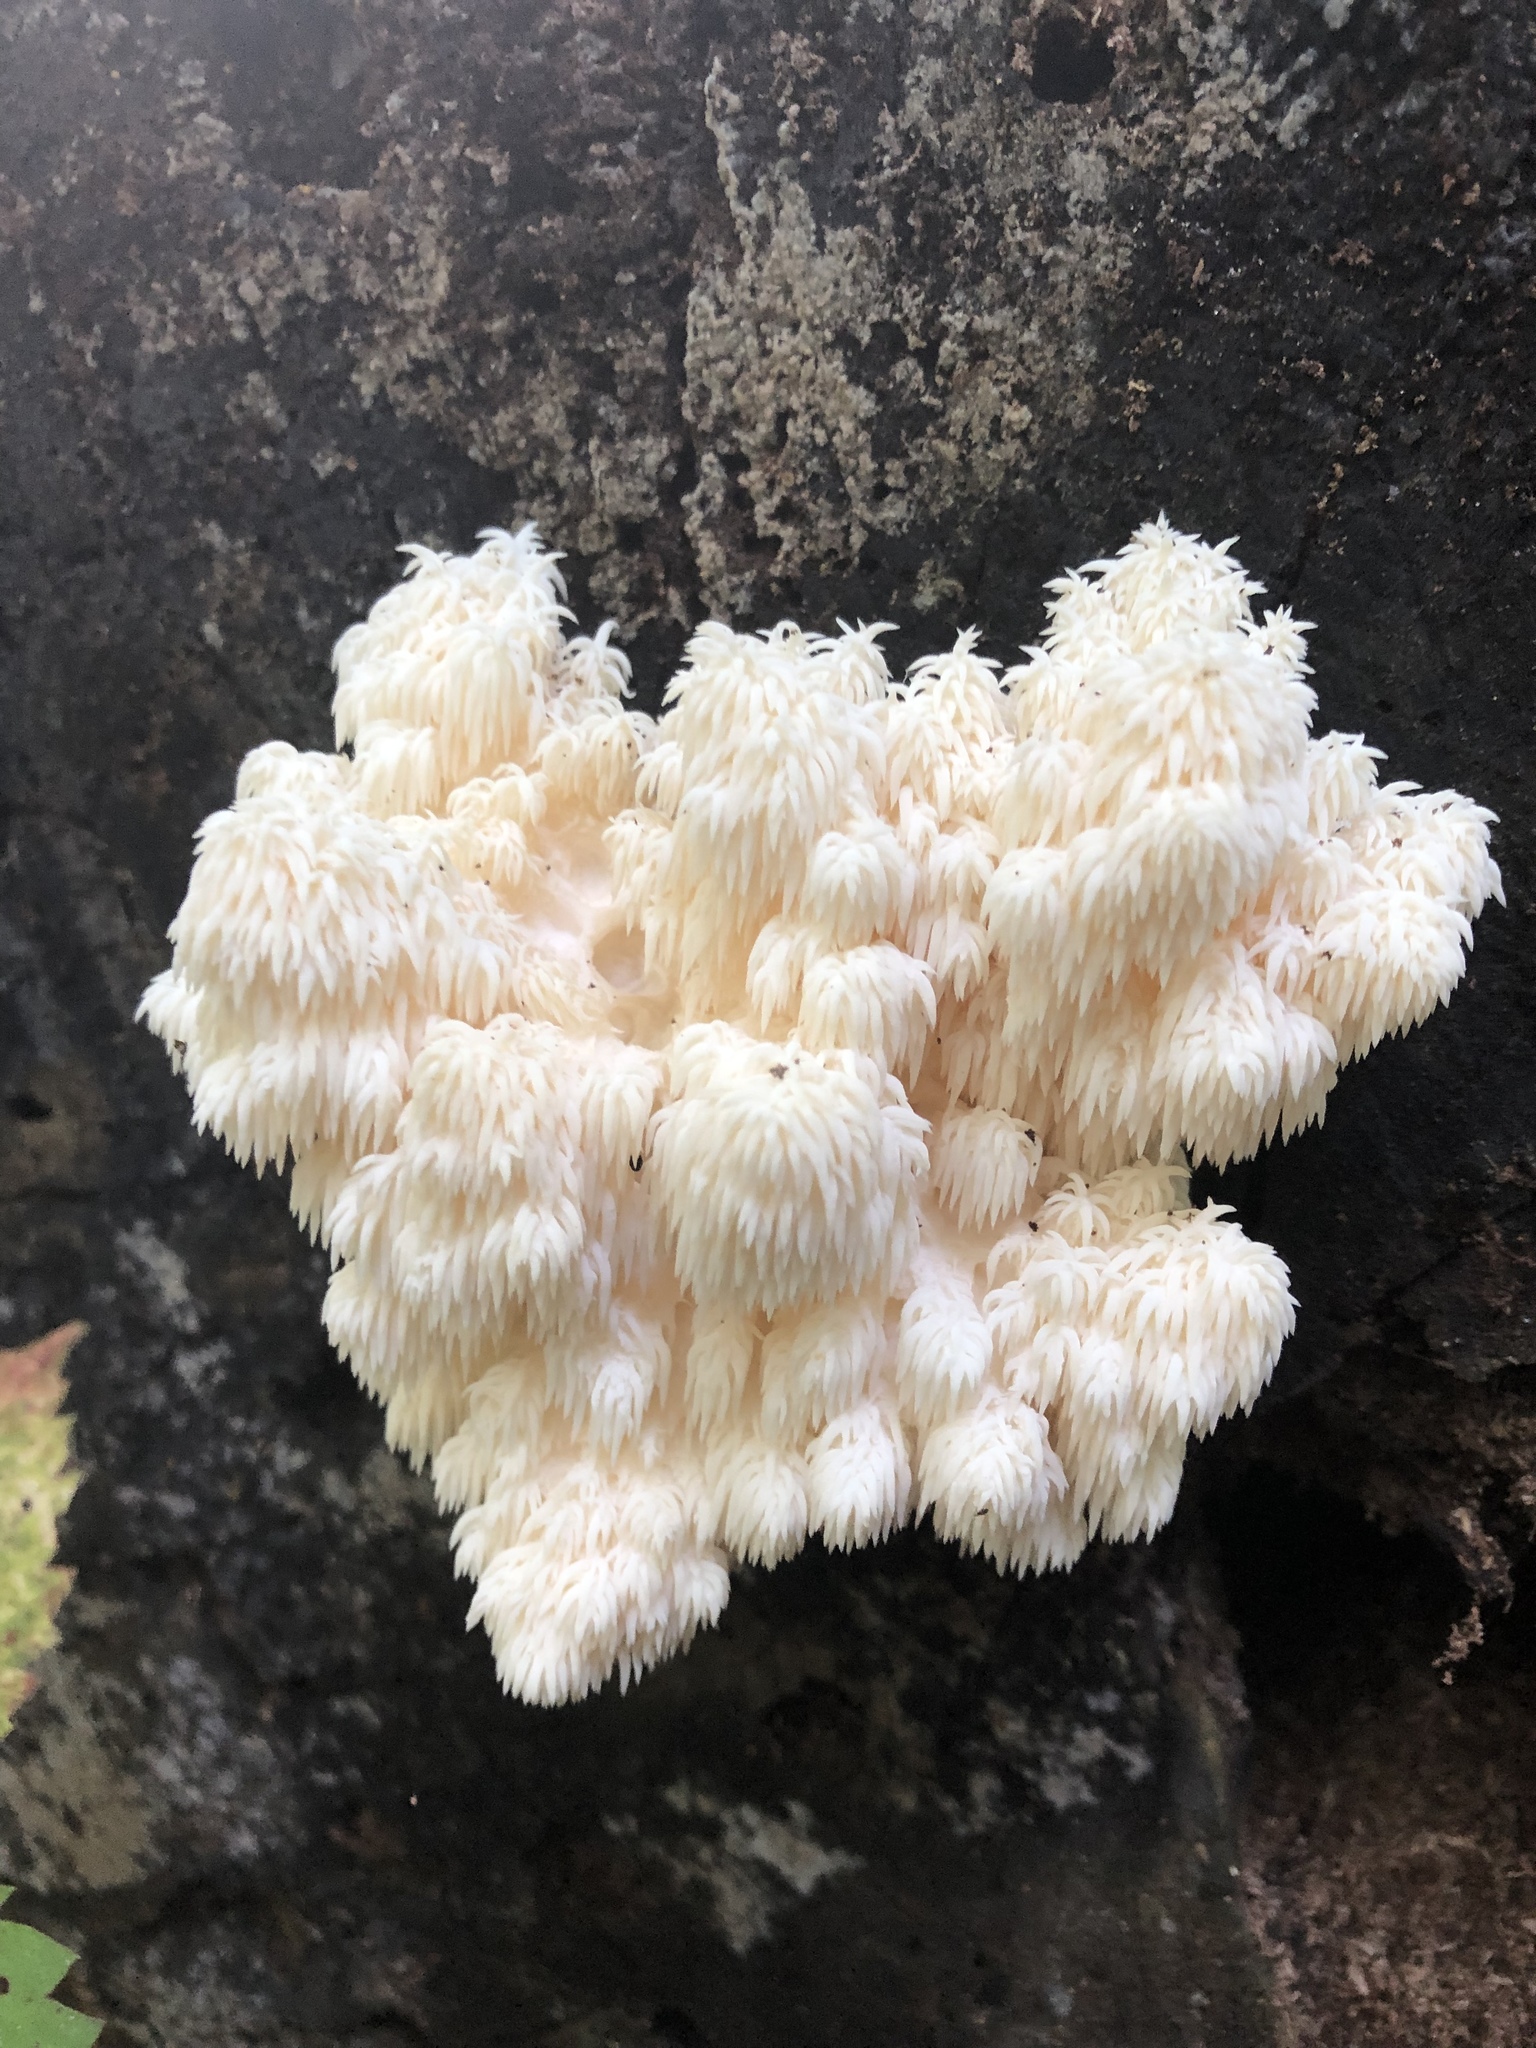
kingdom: Fungi
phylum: Basidiomycota
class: Agaricomycetes
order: Russulales
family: Hericiaceae
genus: Hericium
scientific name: Hericium americanum
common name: Bear's head tooth
